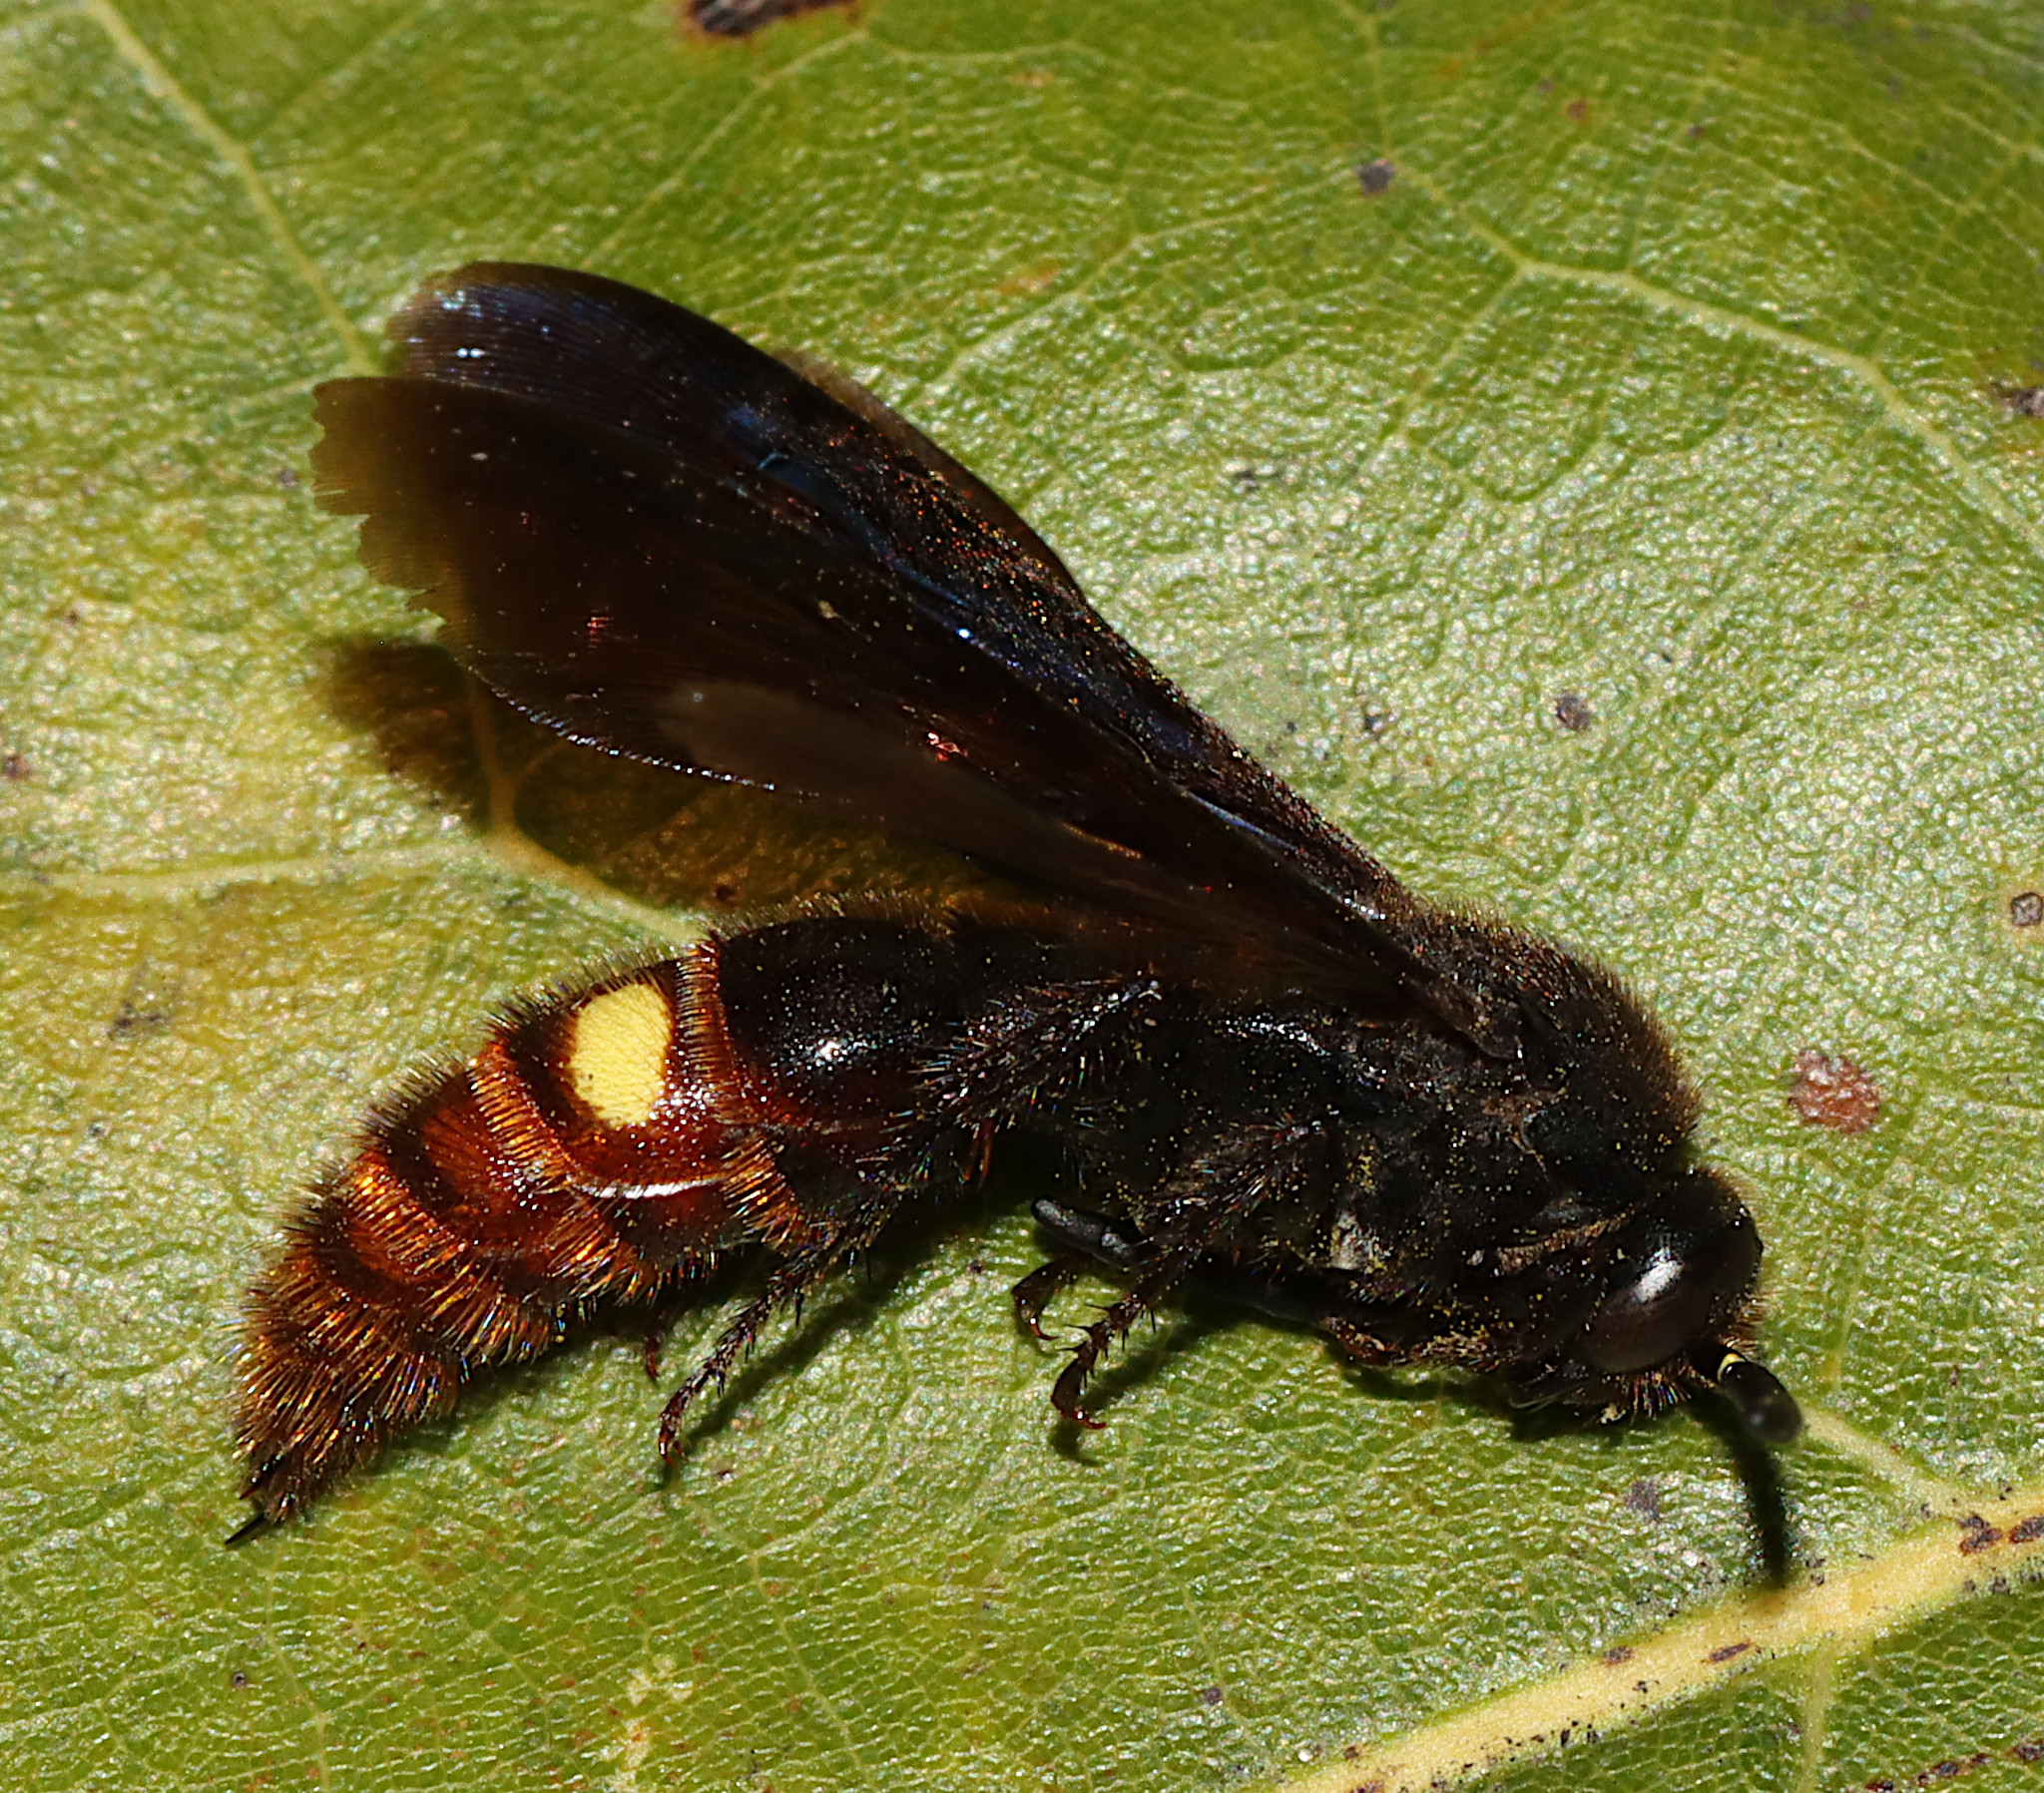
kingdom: Animalia
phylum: Arthropoda
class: Insecta
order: Hymenoptera
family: Scoliidae
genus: Scolia
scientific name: Scolia dubia
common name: Blue-winged scoliid wasp
